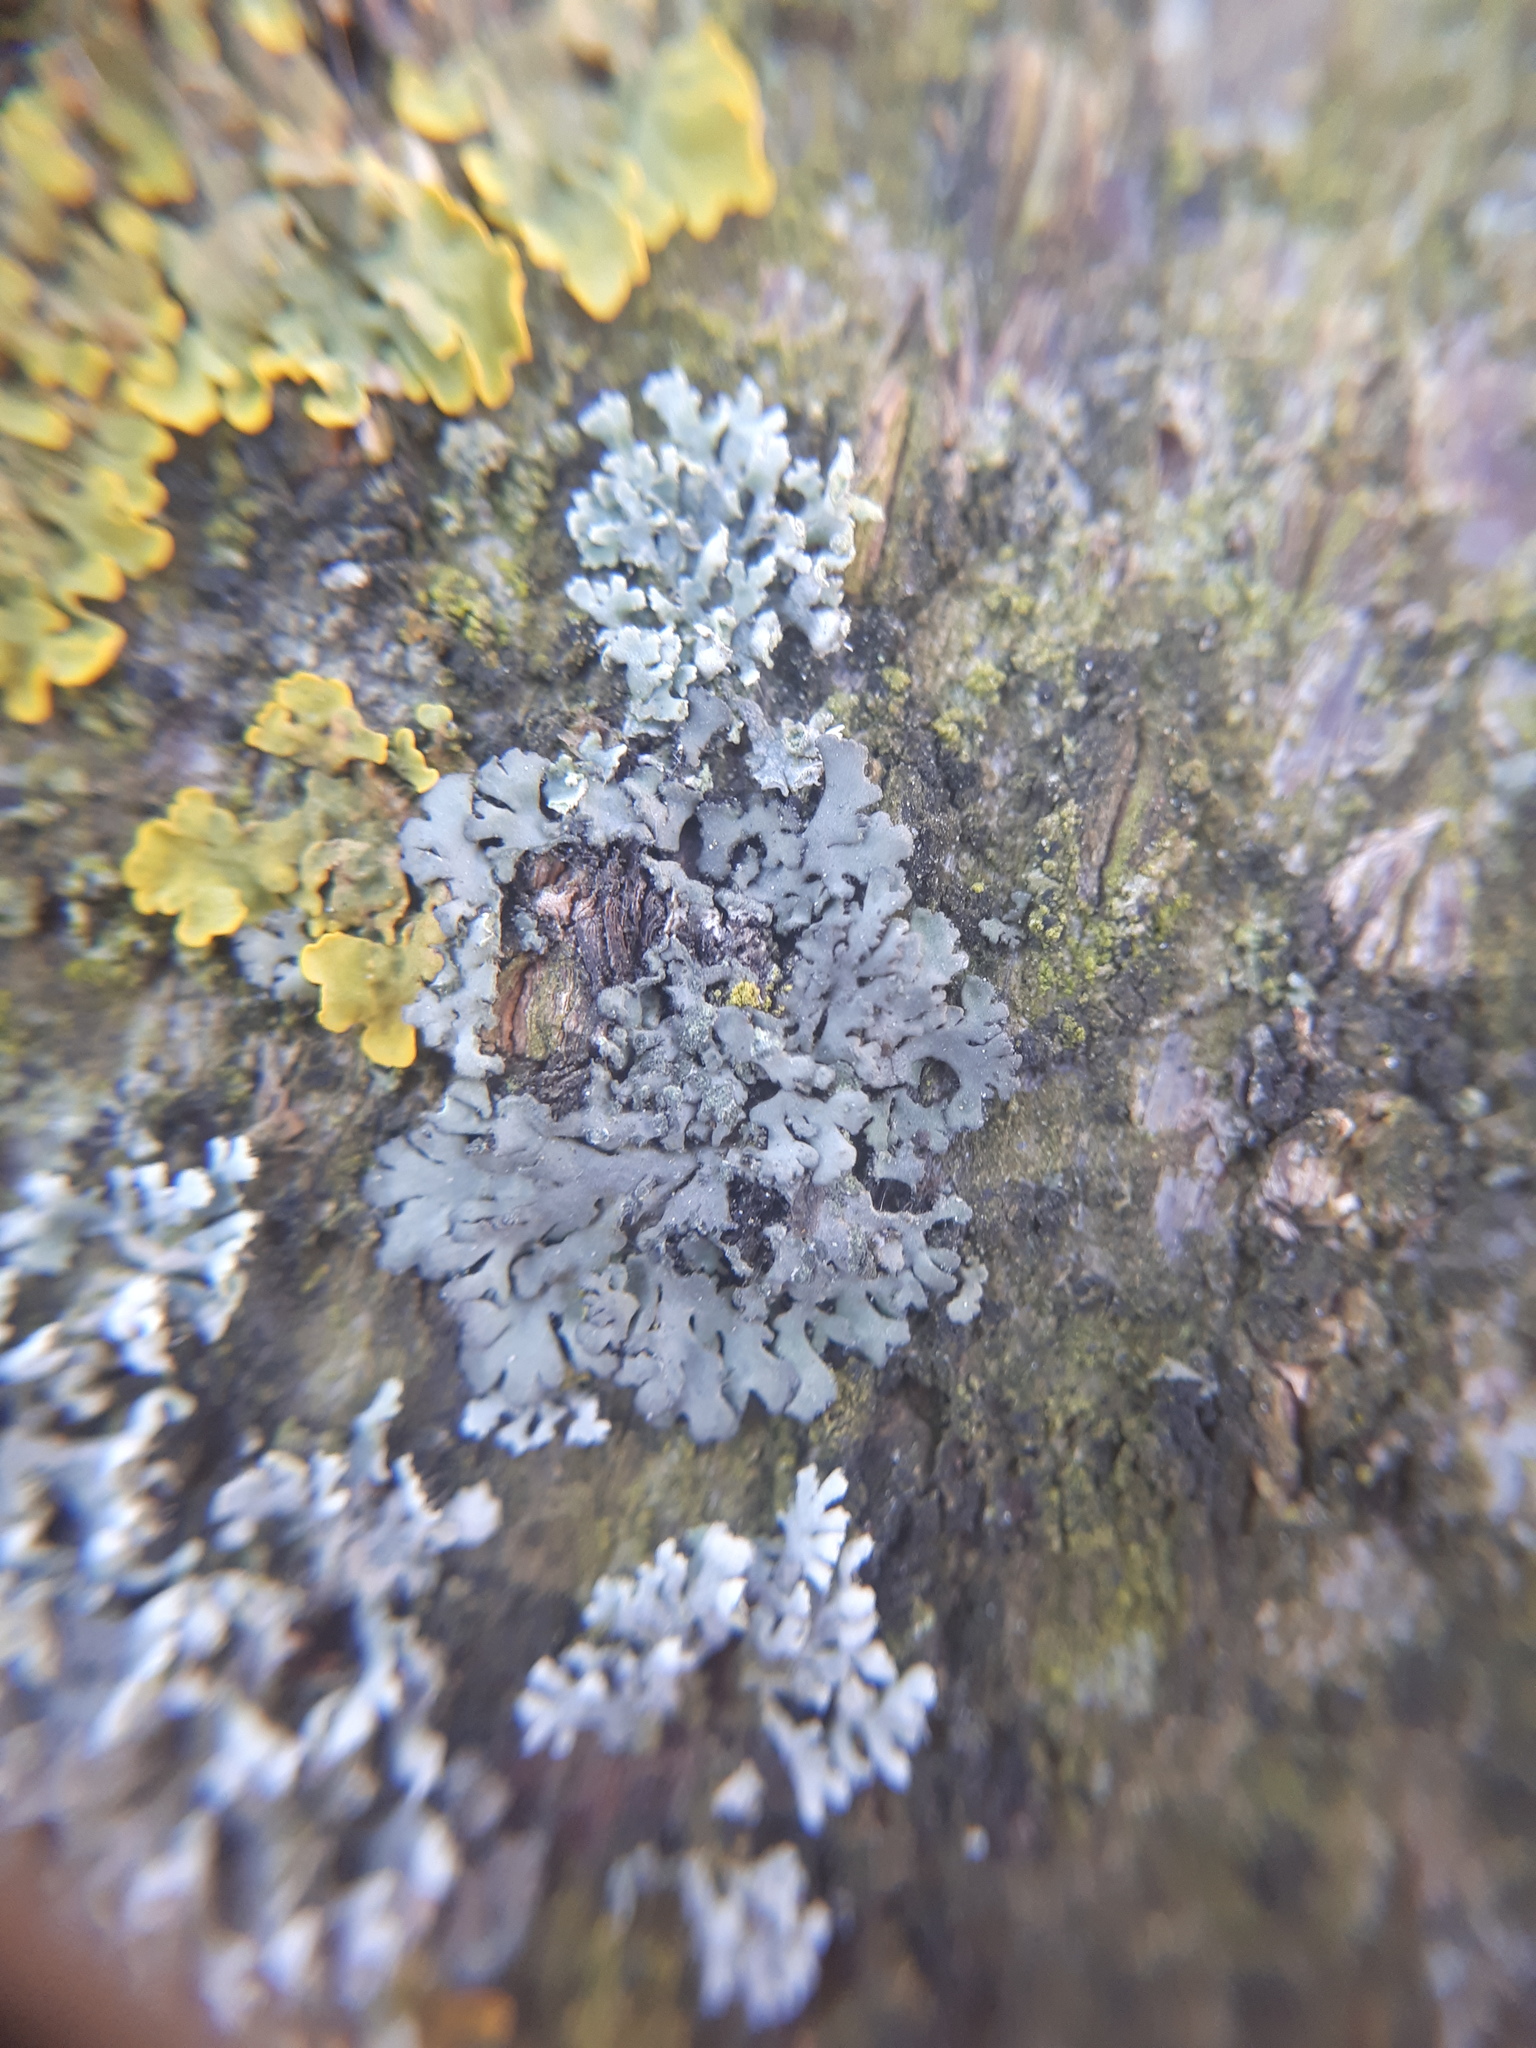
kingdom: Fungi
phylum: Ascomycota
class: Lecanoromycetes
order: Caliciales
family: Physciaceae
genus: Phaeophyscia
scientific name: Phaeophyscia orbicularis
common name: Mealy shadow lichen
